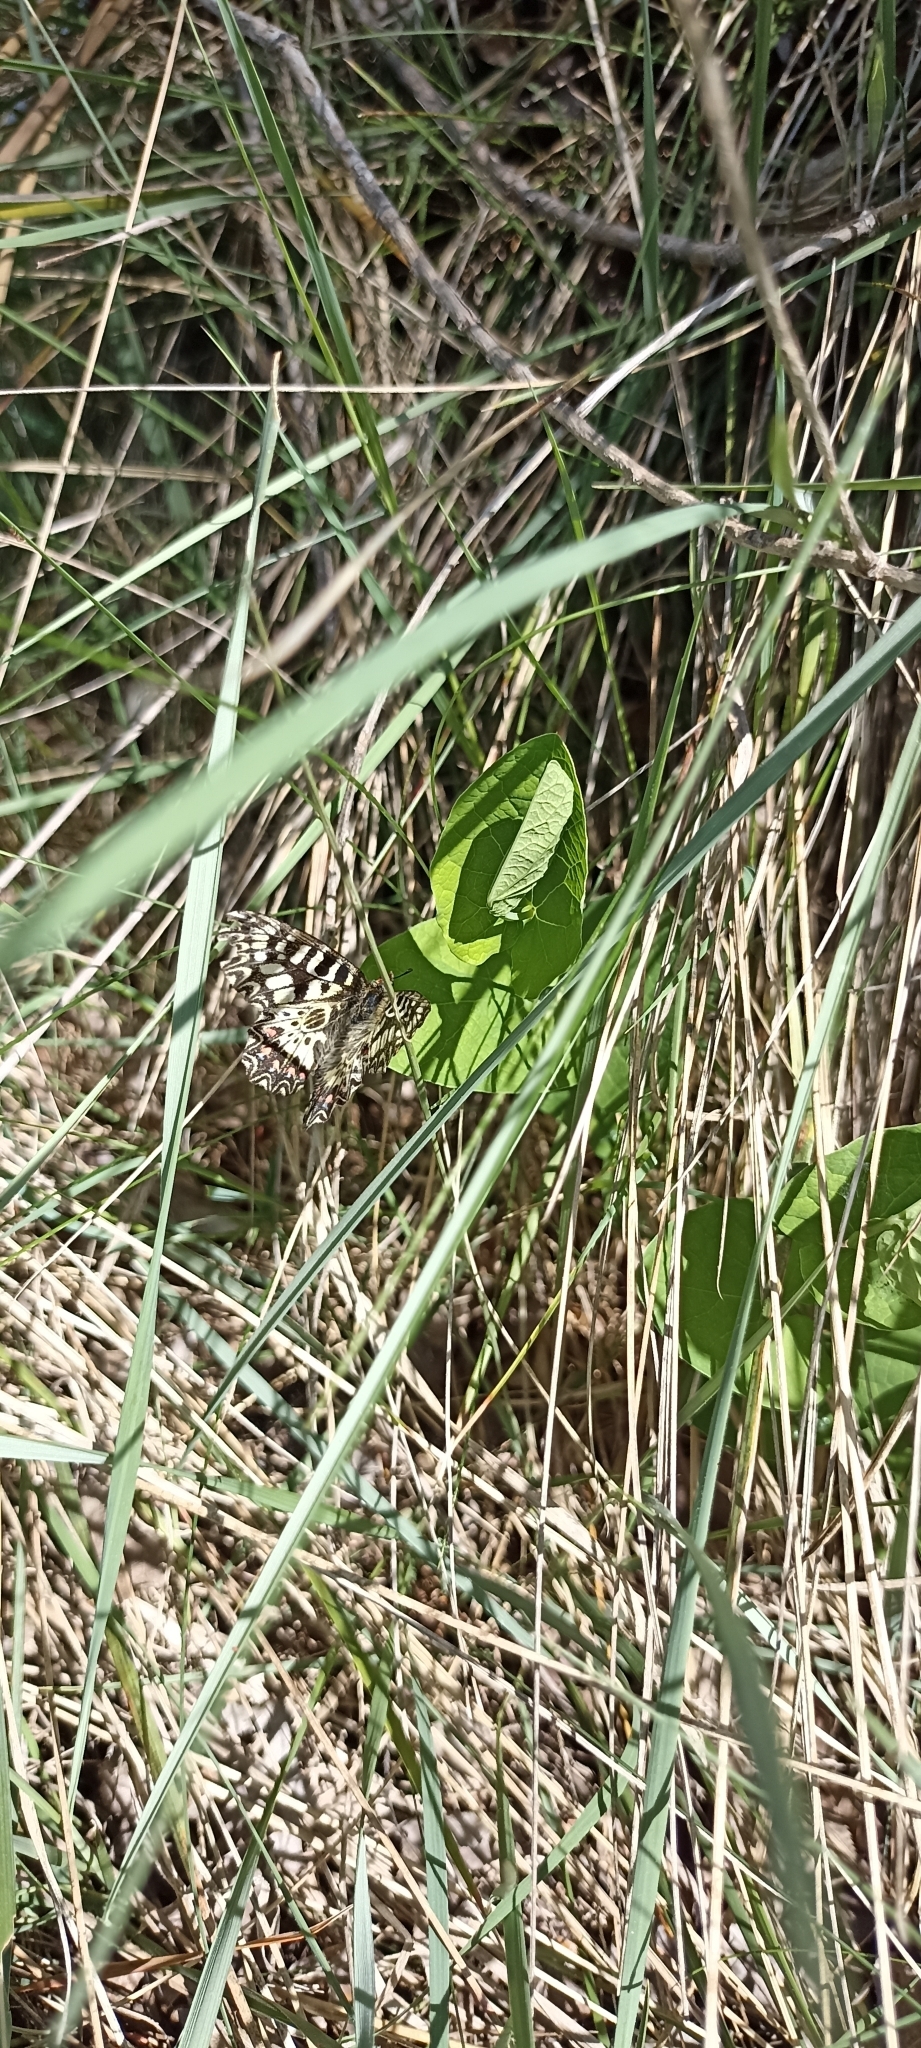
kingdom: Animalia
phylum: Arthropoda
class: Insecta
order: Lepidoptera
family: Papilionidae
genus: Zerynthia
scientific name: Zerynthia polyxena
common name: Southern festoon
